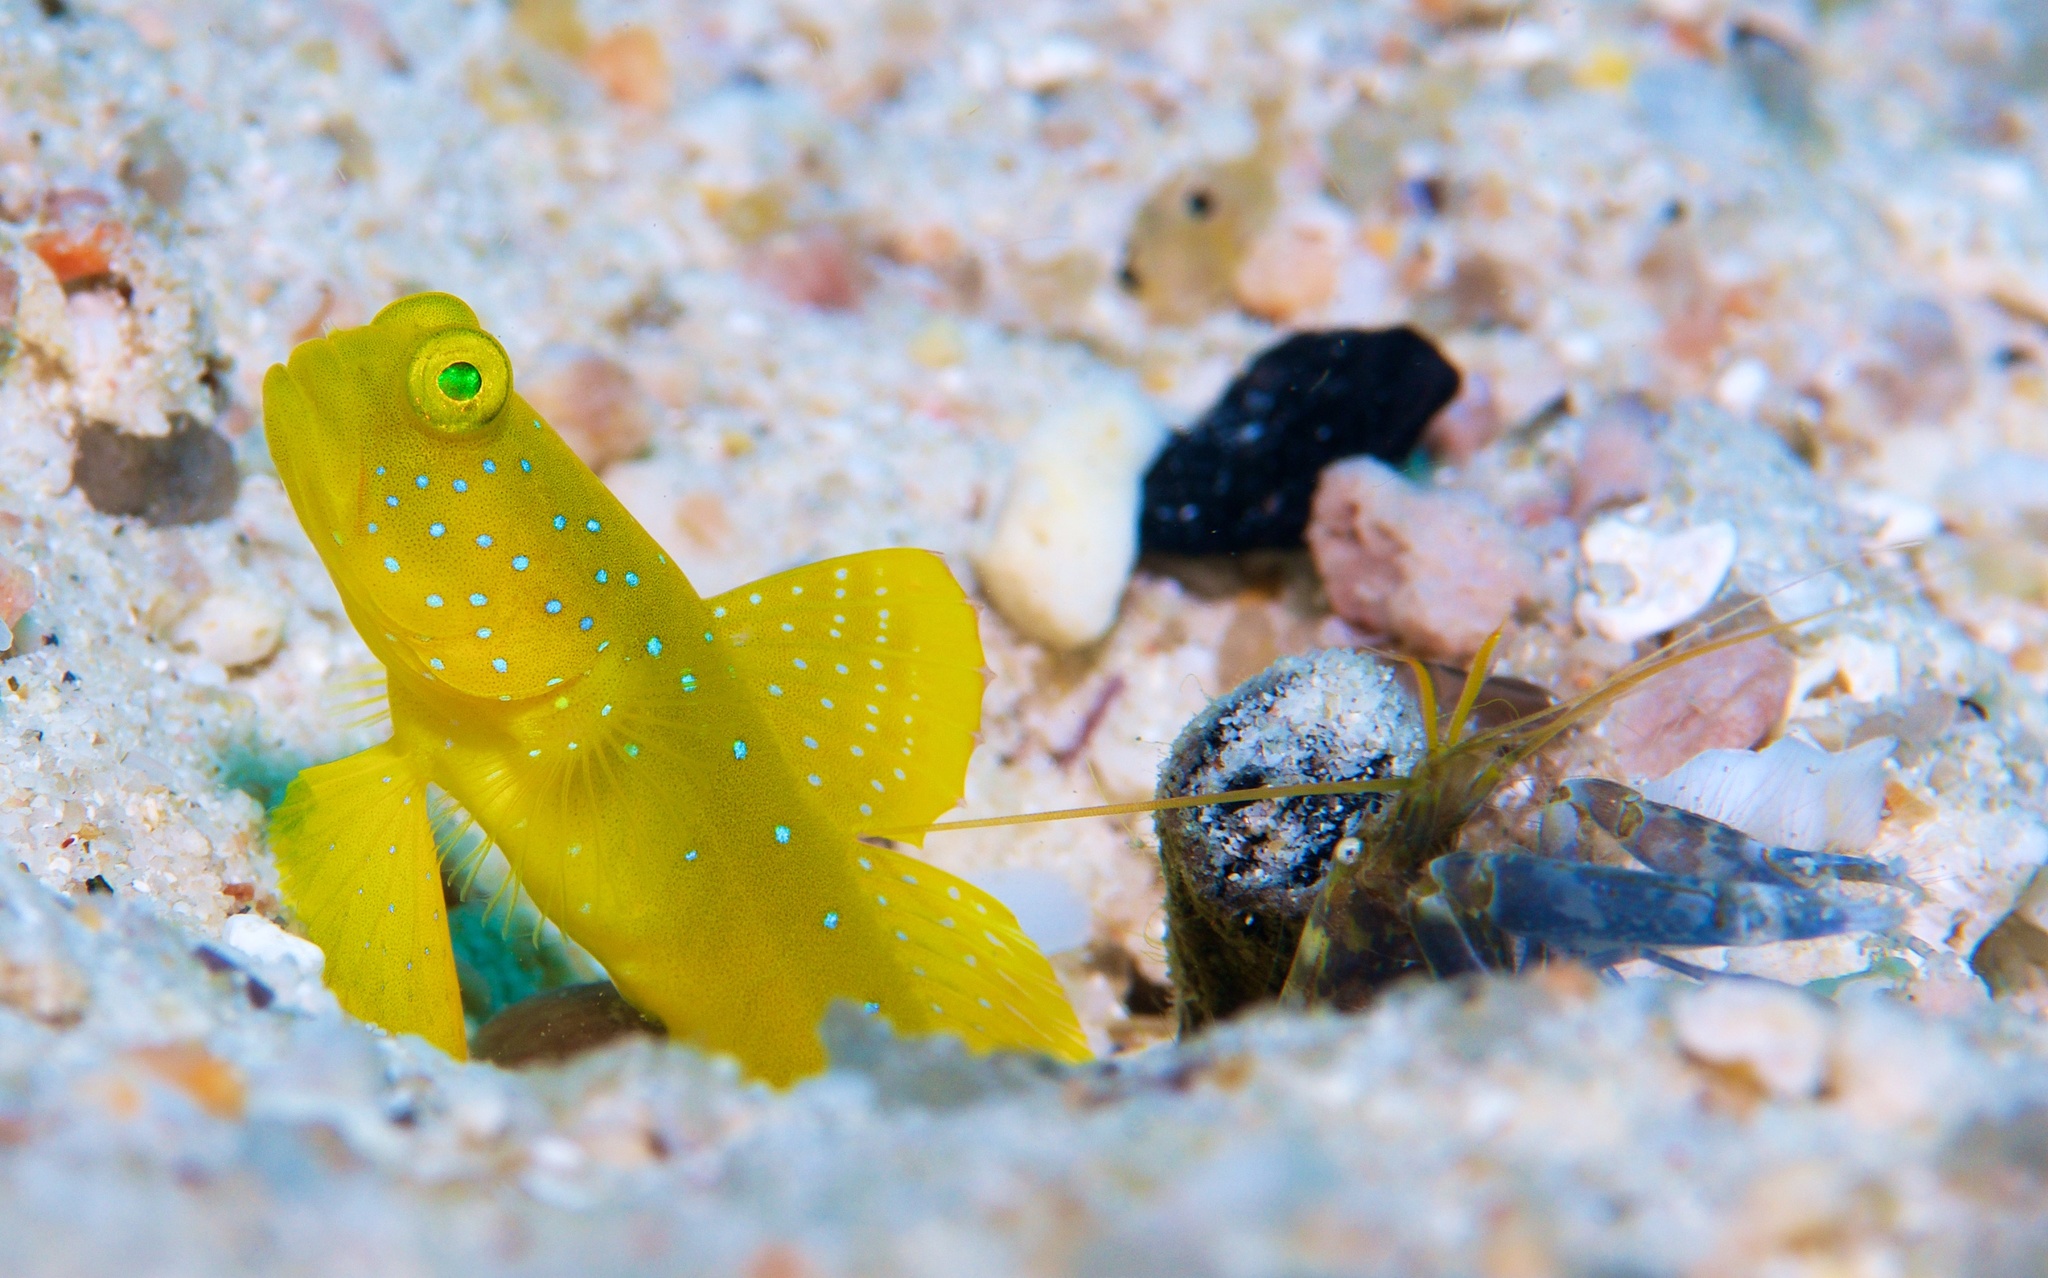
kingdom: Animalia
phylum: Chordata
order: Perciformes
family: Gobiidae
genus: Cryptocentrus
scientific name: Cryptocentrus cinctus
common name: Yellow shrimp goby
